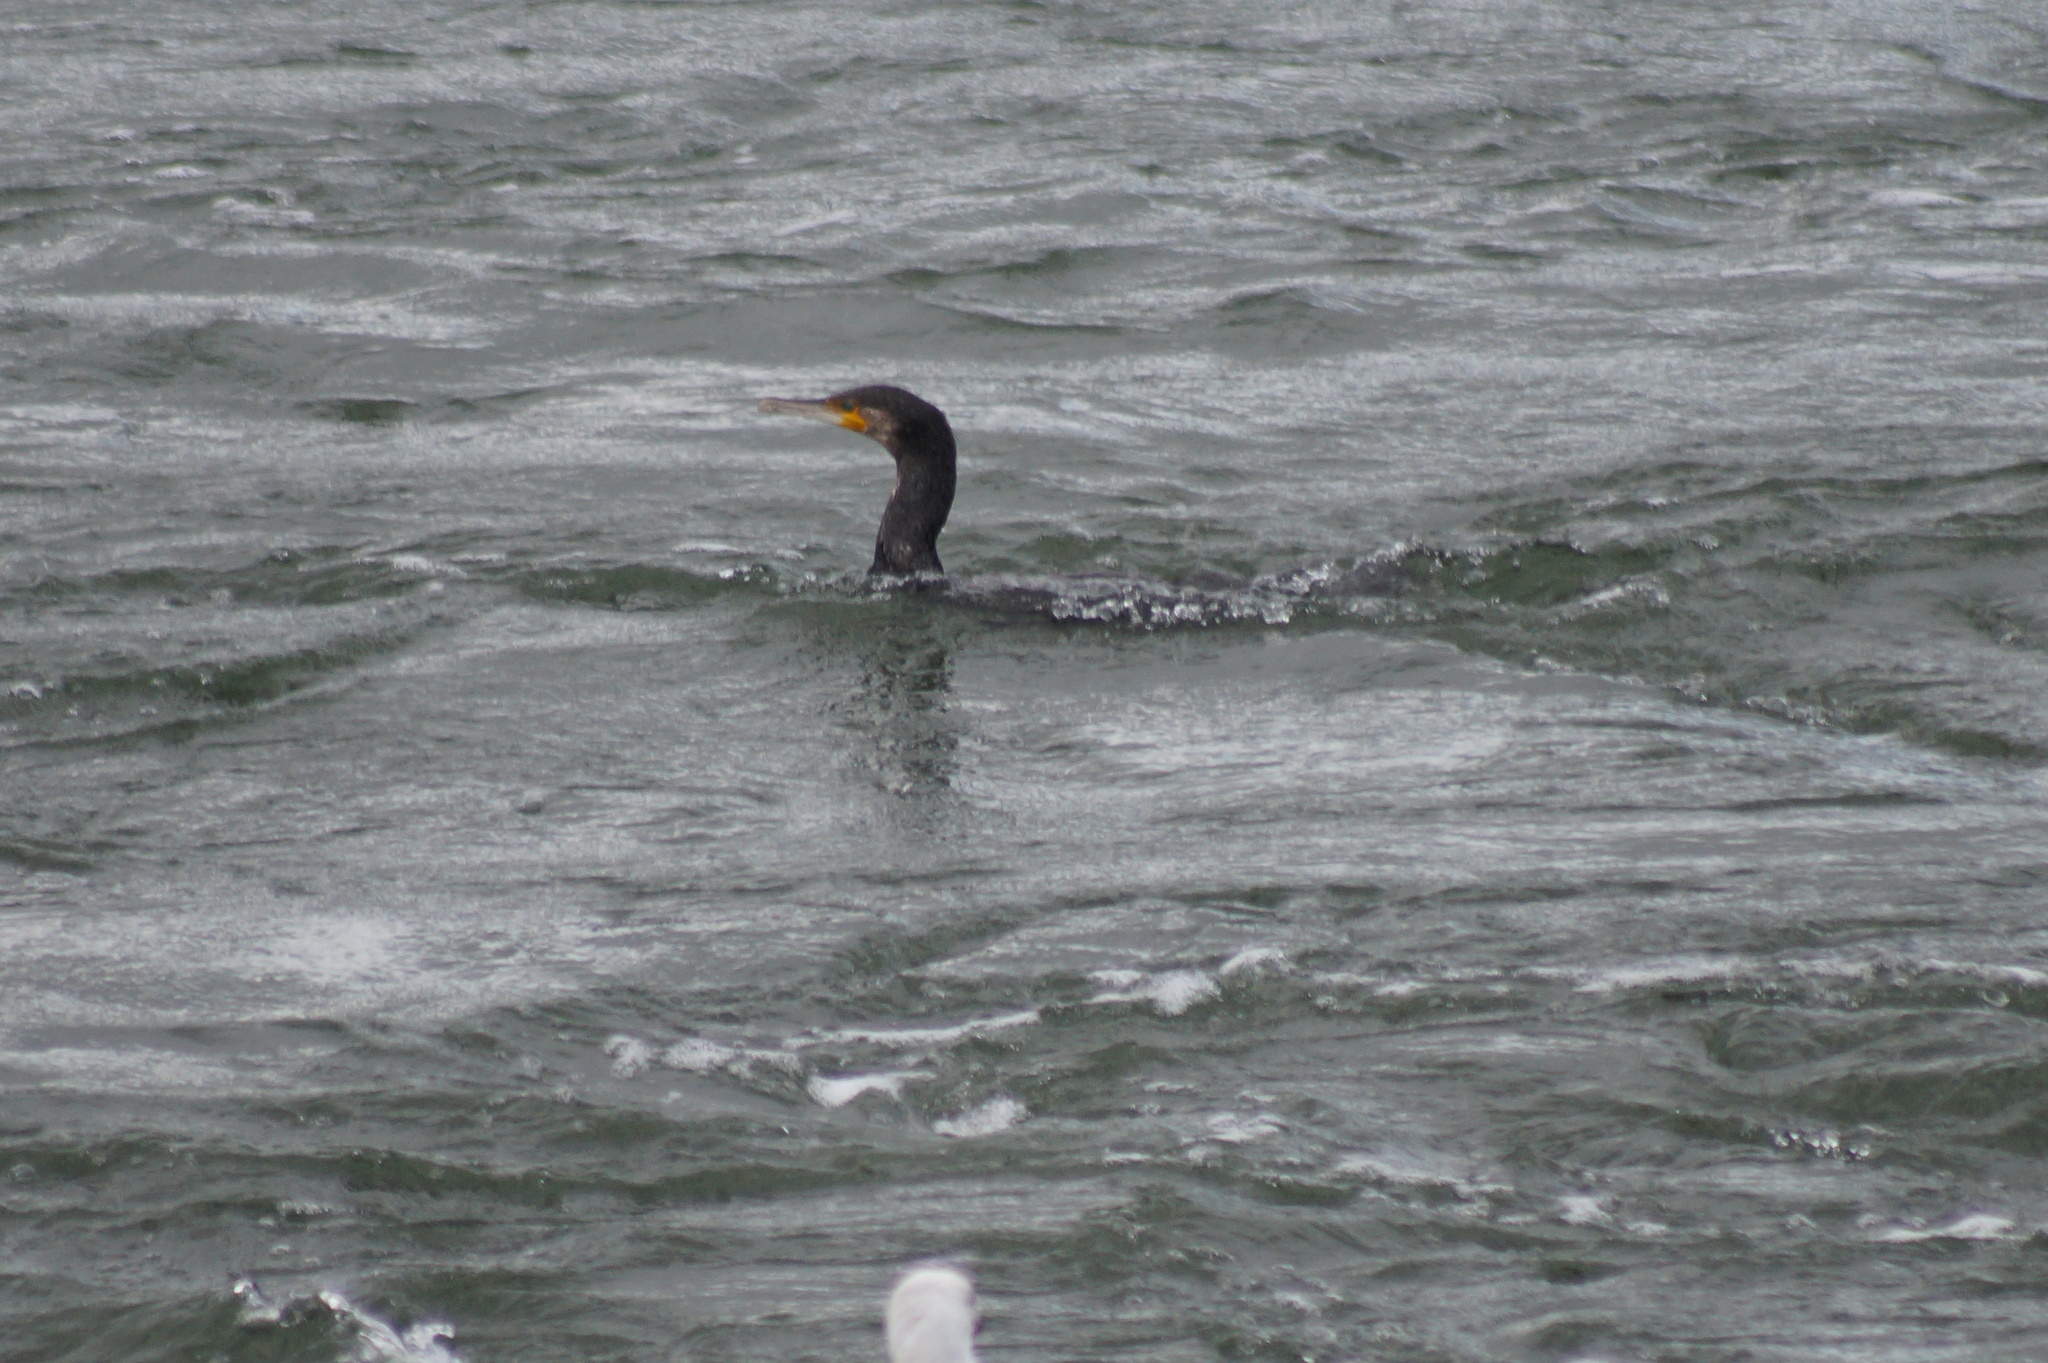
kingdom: Animalia
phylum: Chordata
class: Aves
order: Suliformes
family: Phalacrocoracidae
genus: Phalacrocorax
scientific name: Phalacrocorax carbo
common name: Great cormorant
